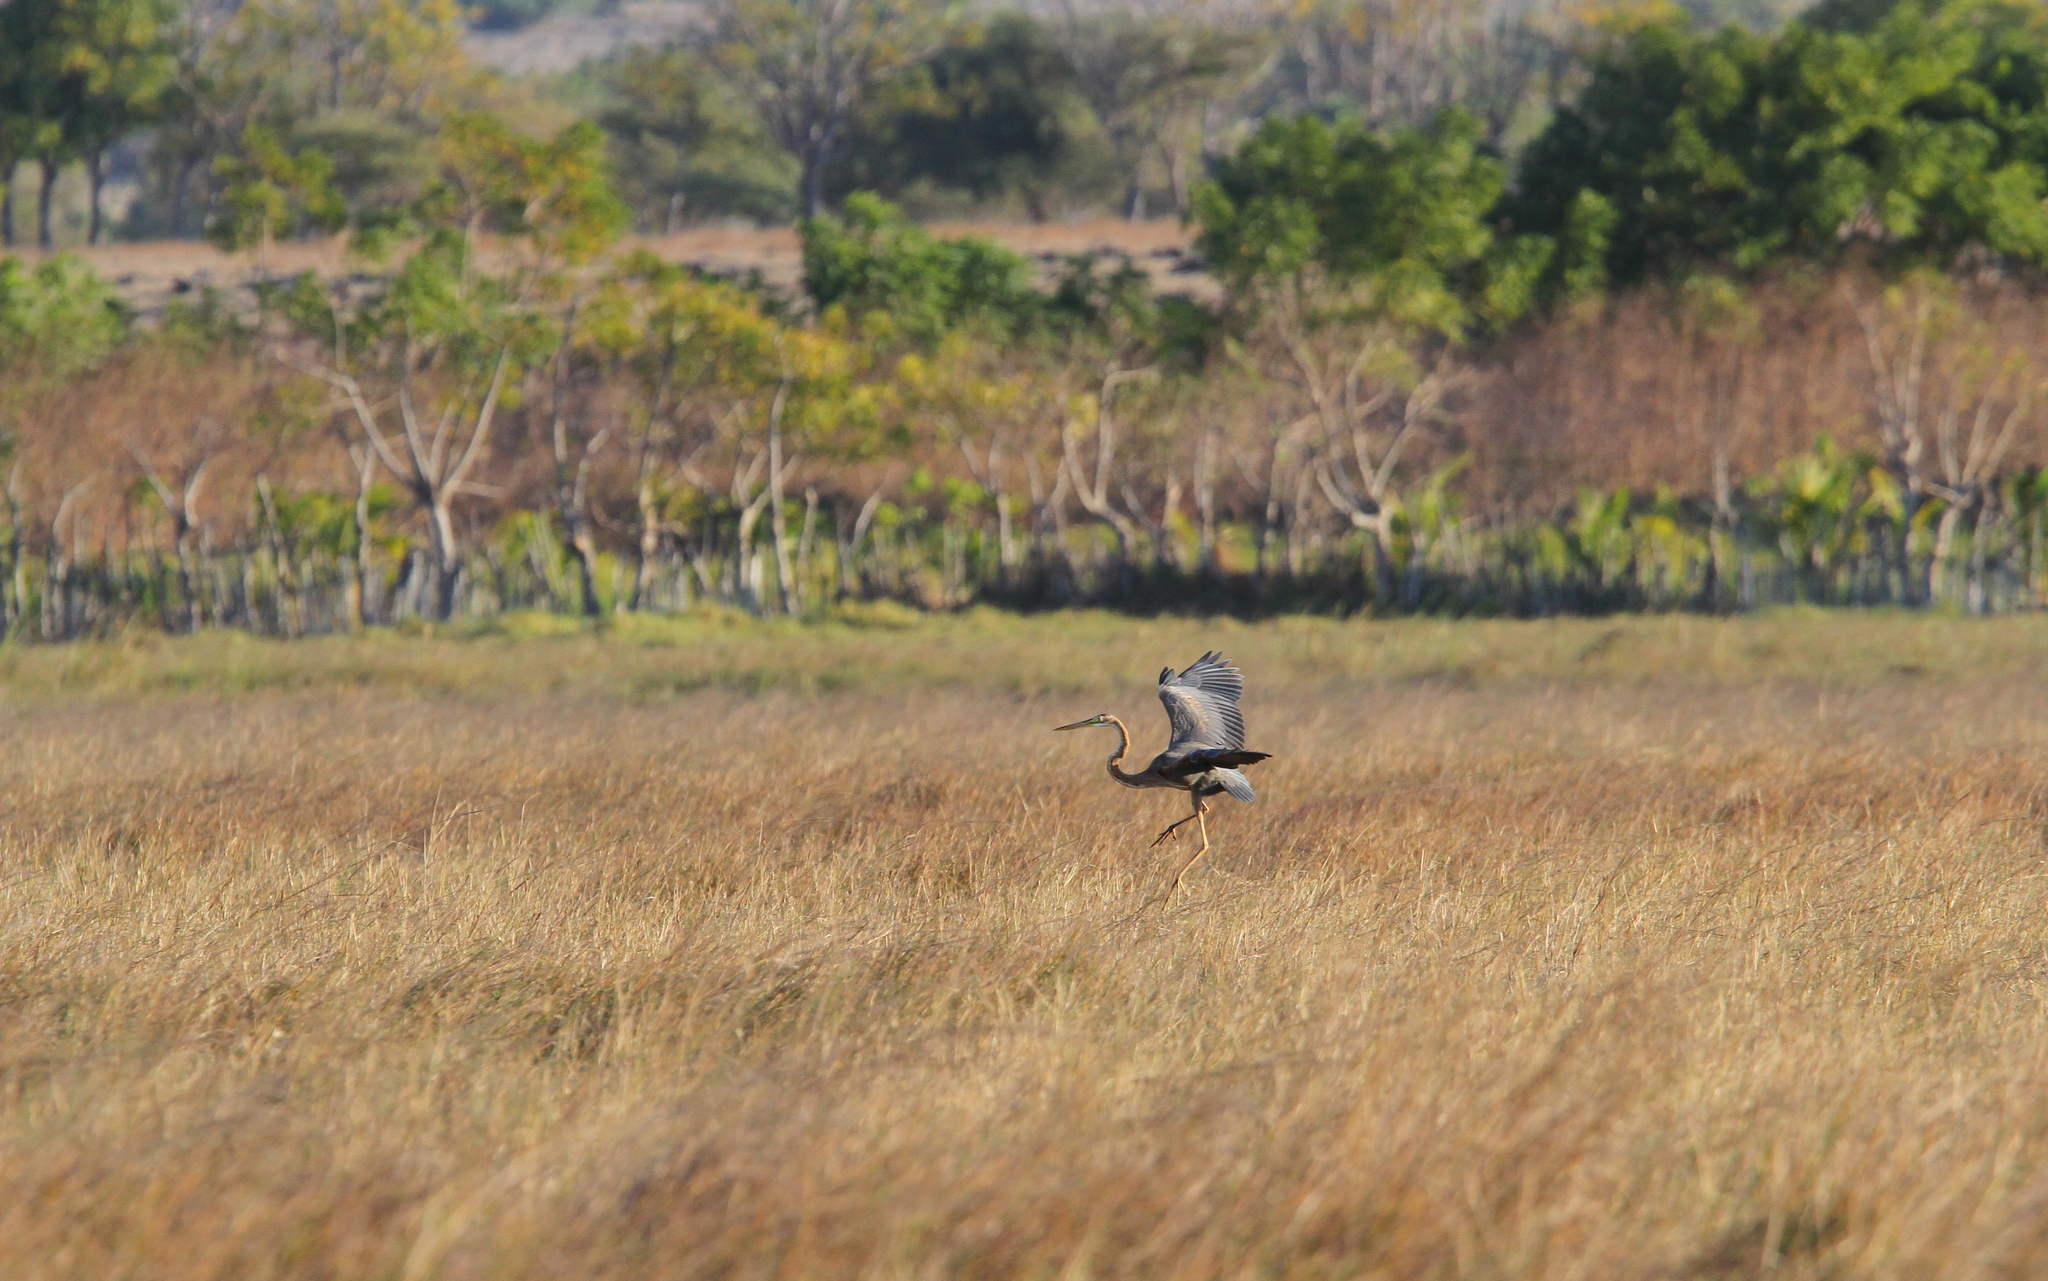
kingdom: Animalia
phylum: Chordata
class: Aves
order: Pelecaniformes
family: Ardeidae
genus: Ardea
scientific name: Ardea purpurea
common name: Purple heron
